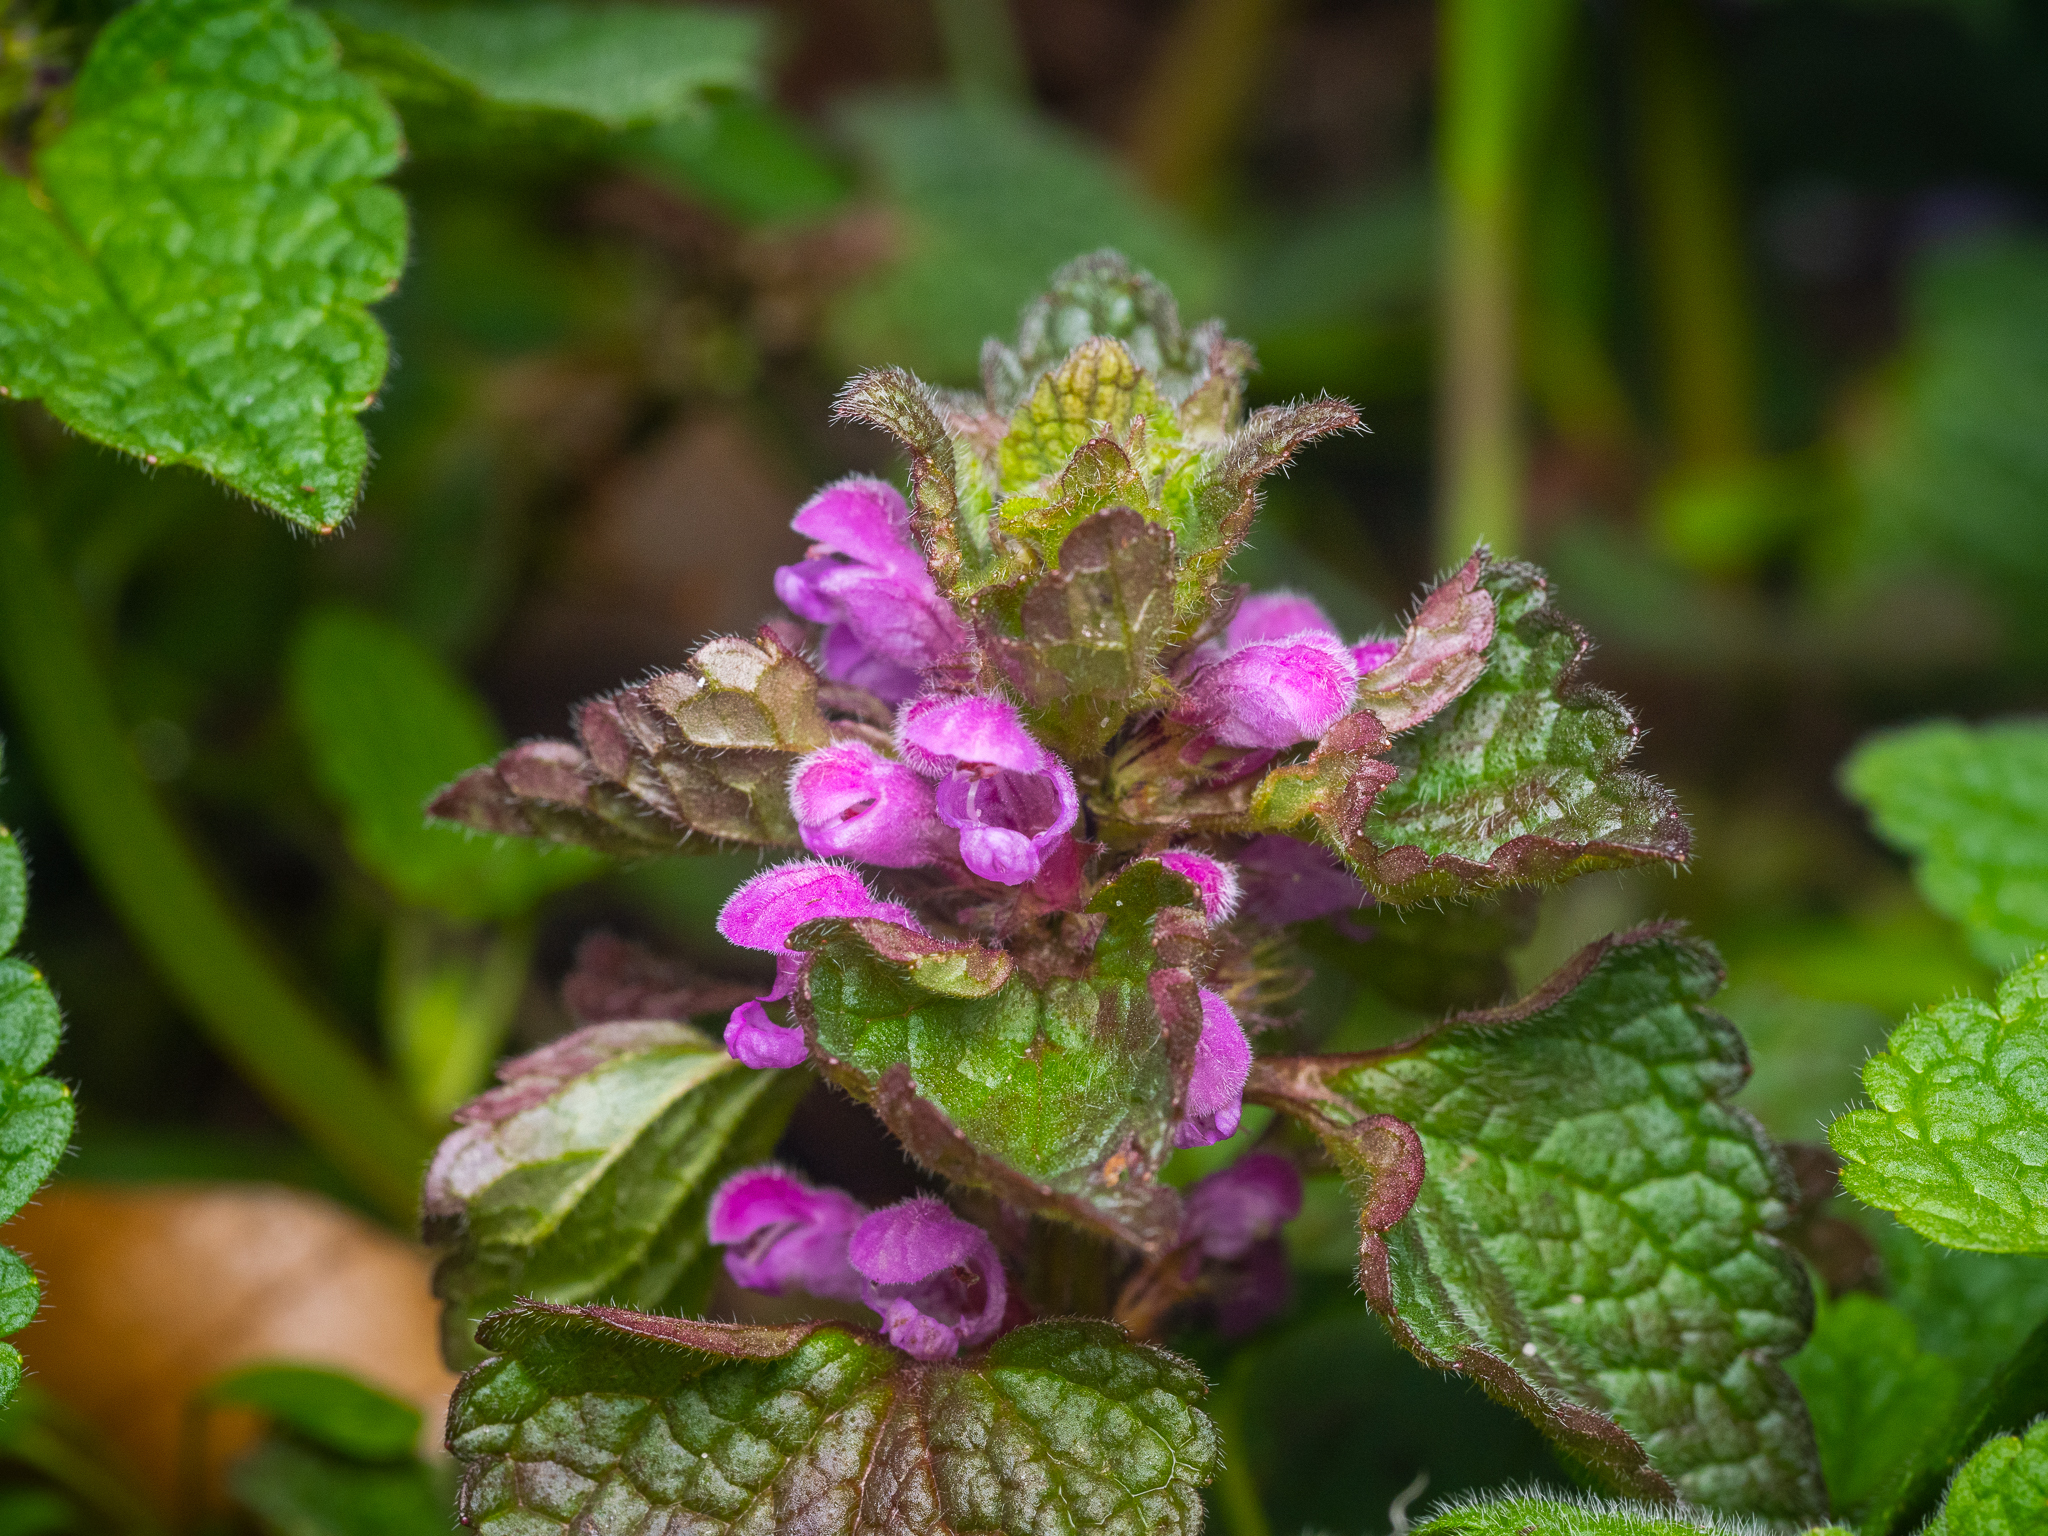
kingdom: Plantae
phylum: Tracheophyta
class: Magnoliopsida
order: Lamiales
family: Lamiaceae
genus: Lamium
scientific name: Lamium purpureum
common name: Red dead-nettle
